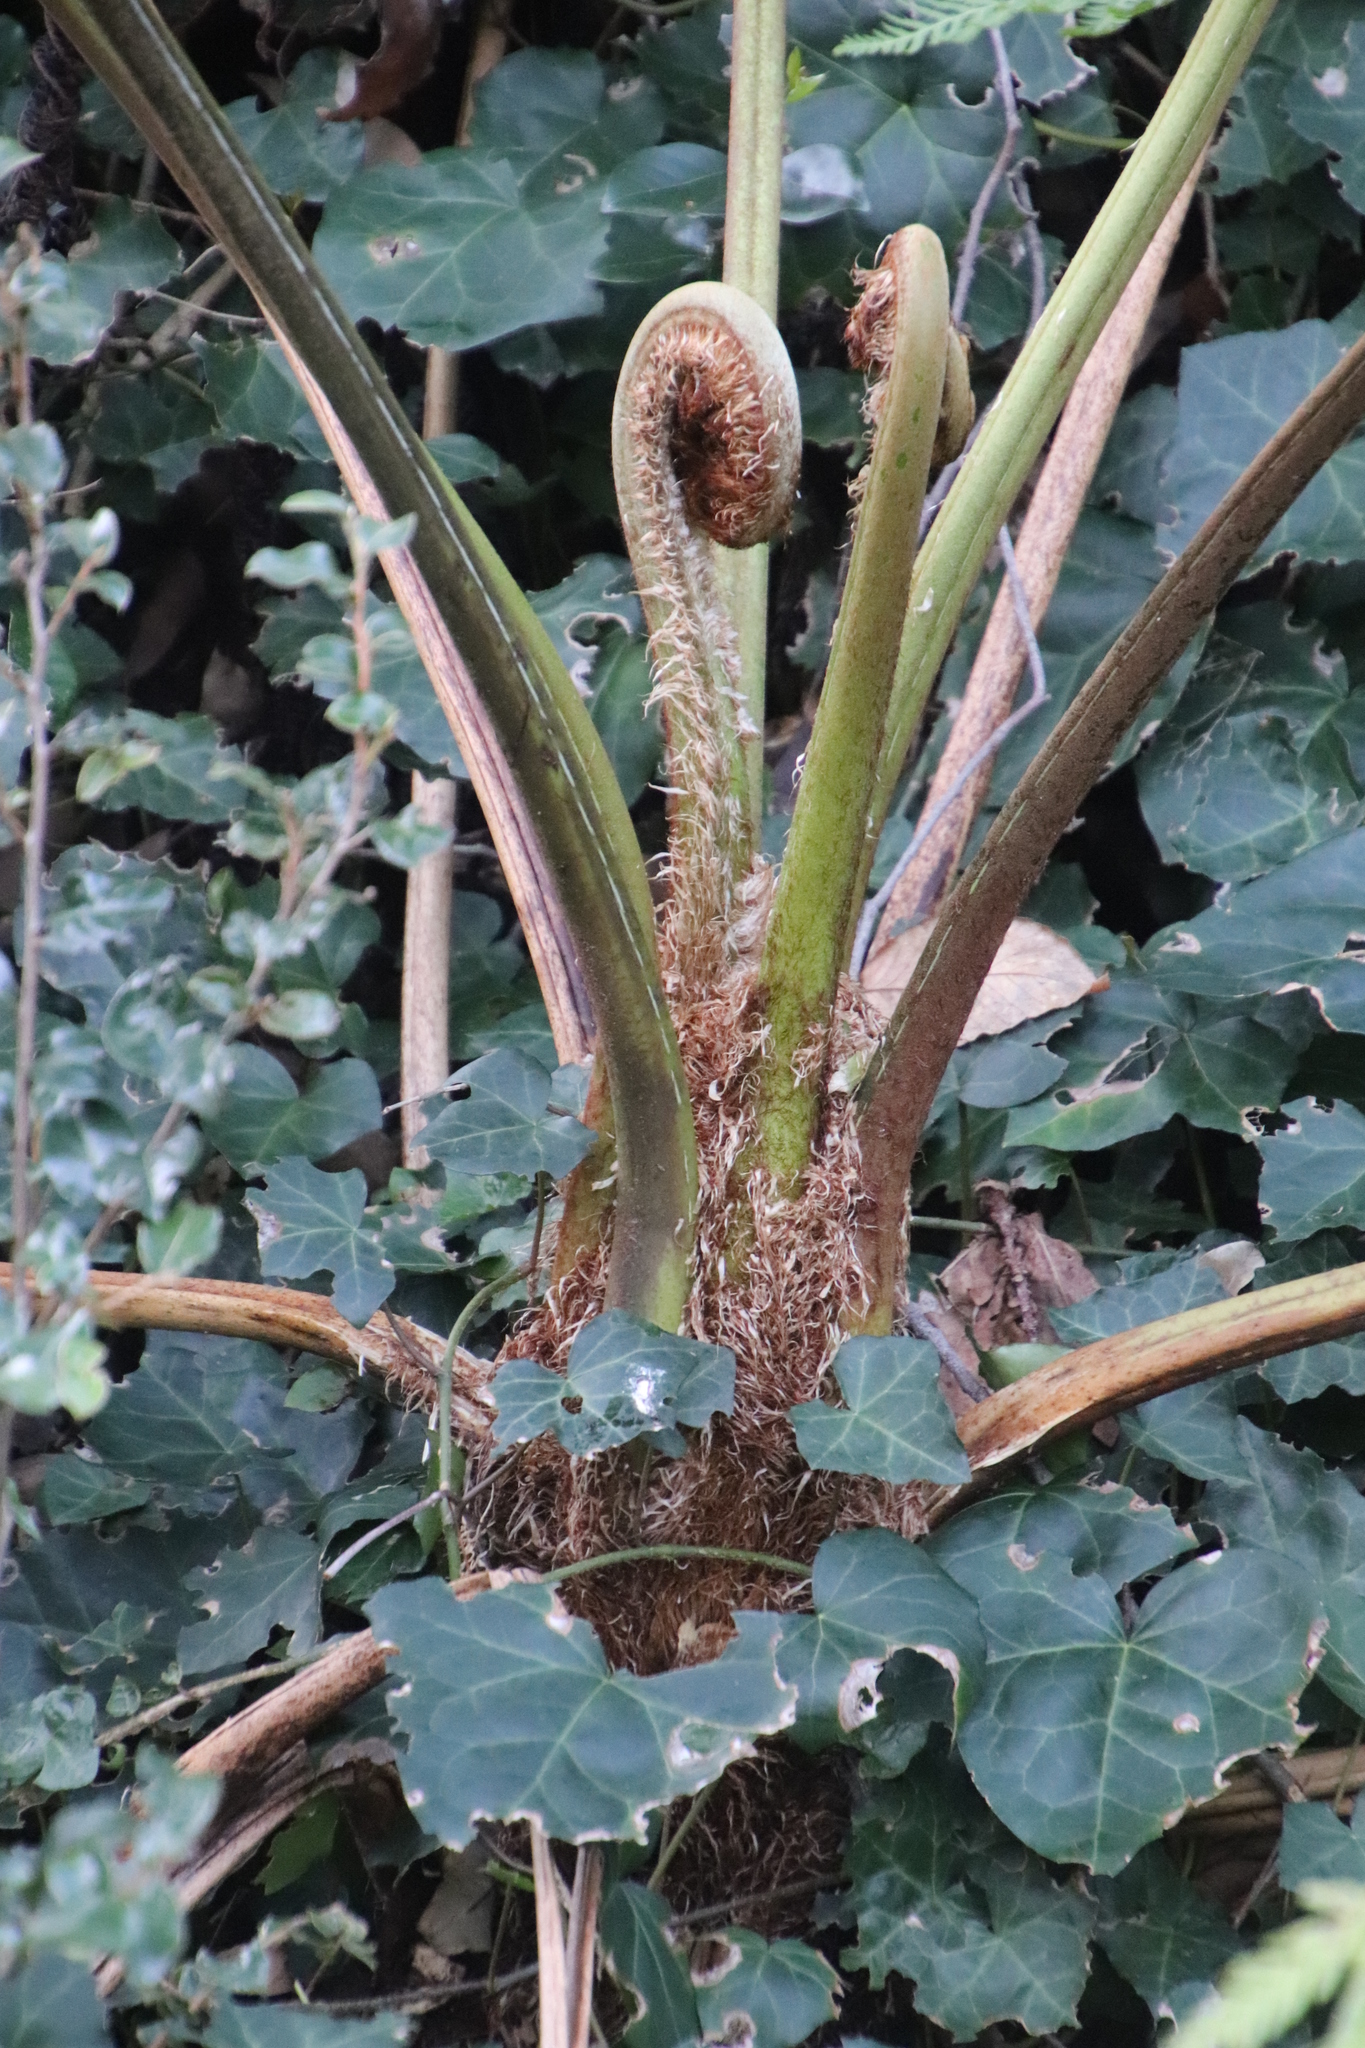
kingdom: Plantae
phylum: Tracheophyta
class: Polypodiopsida
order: Cyatheales
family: Cyatheaceae
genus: Sphaeropteris
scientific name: Sphaeropteris cooperi
